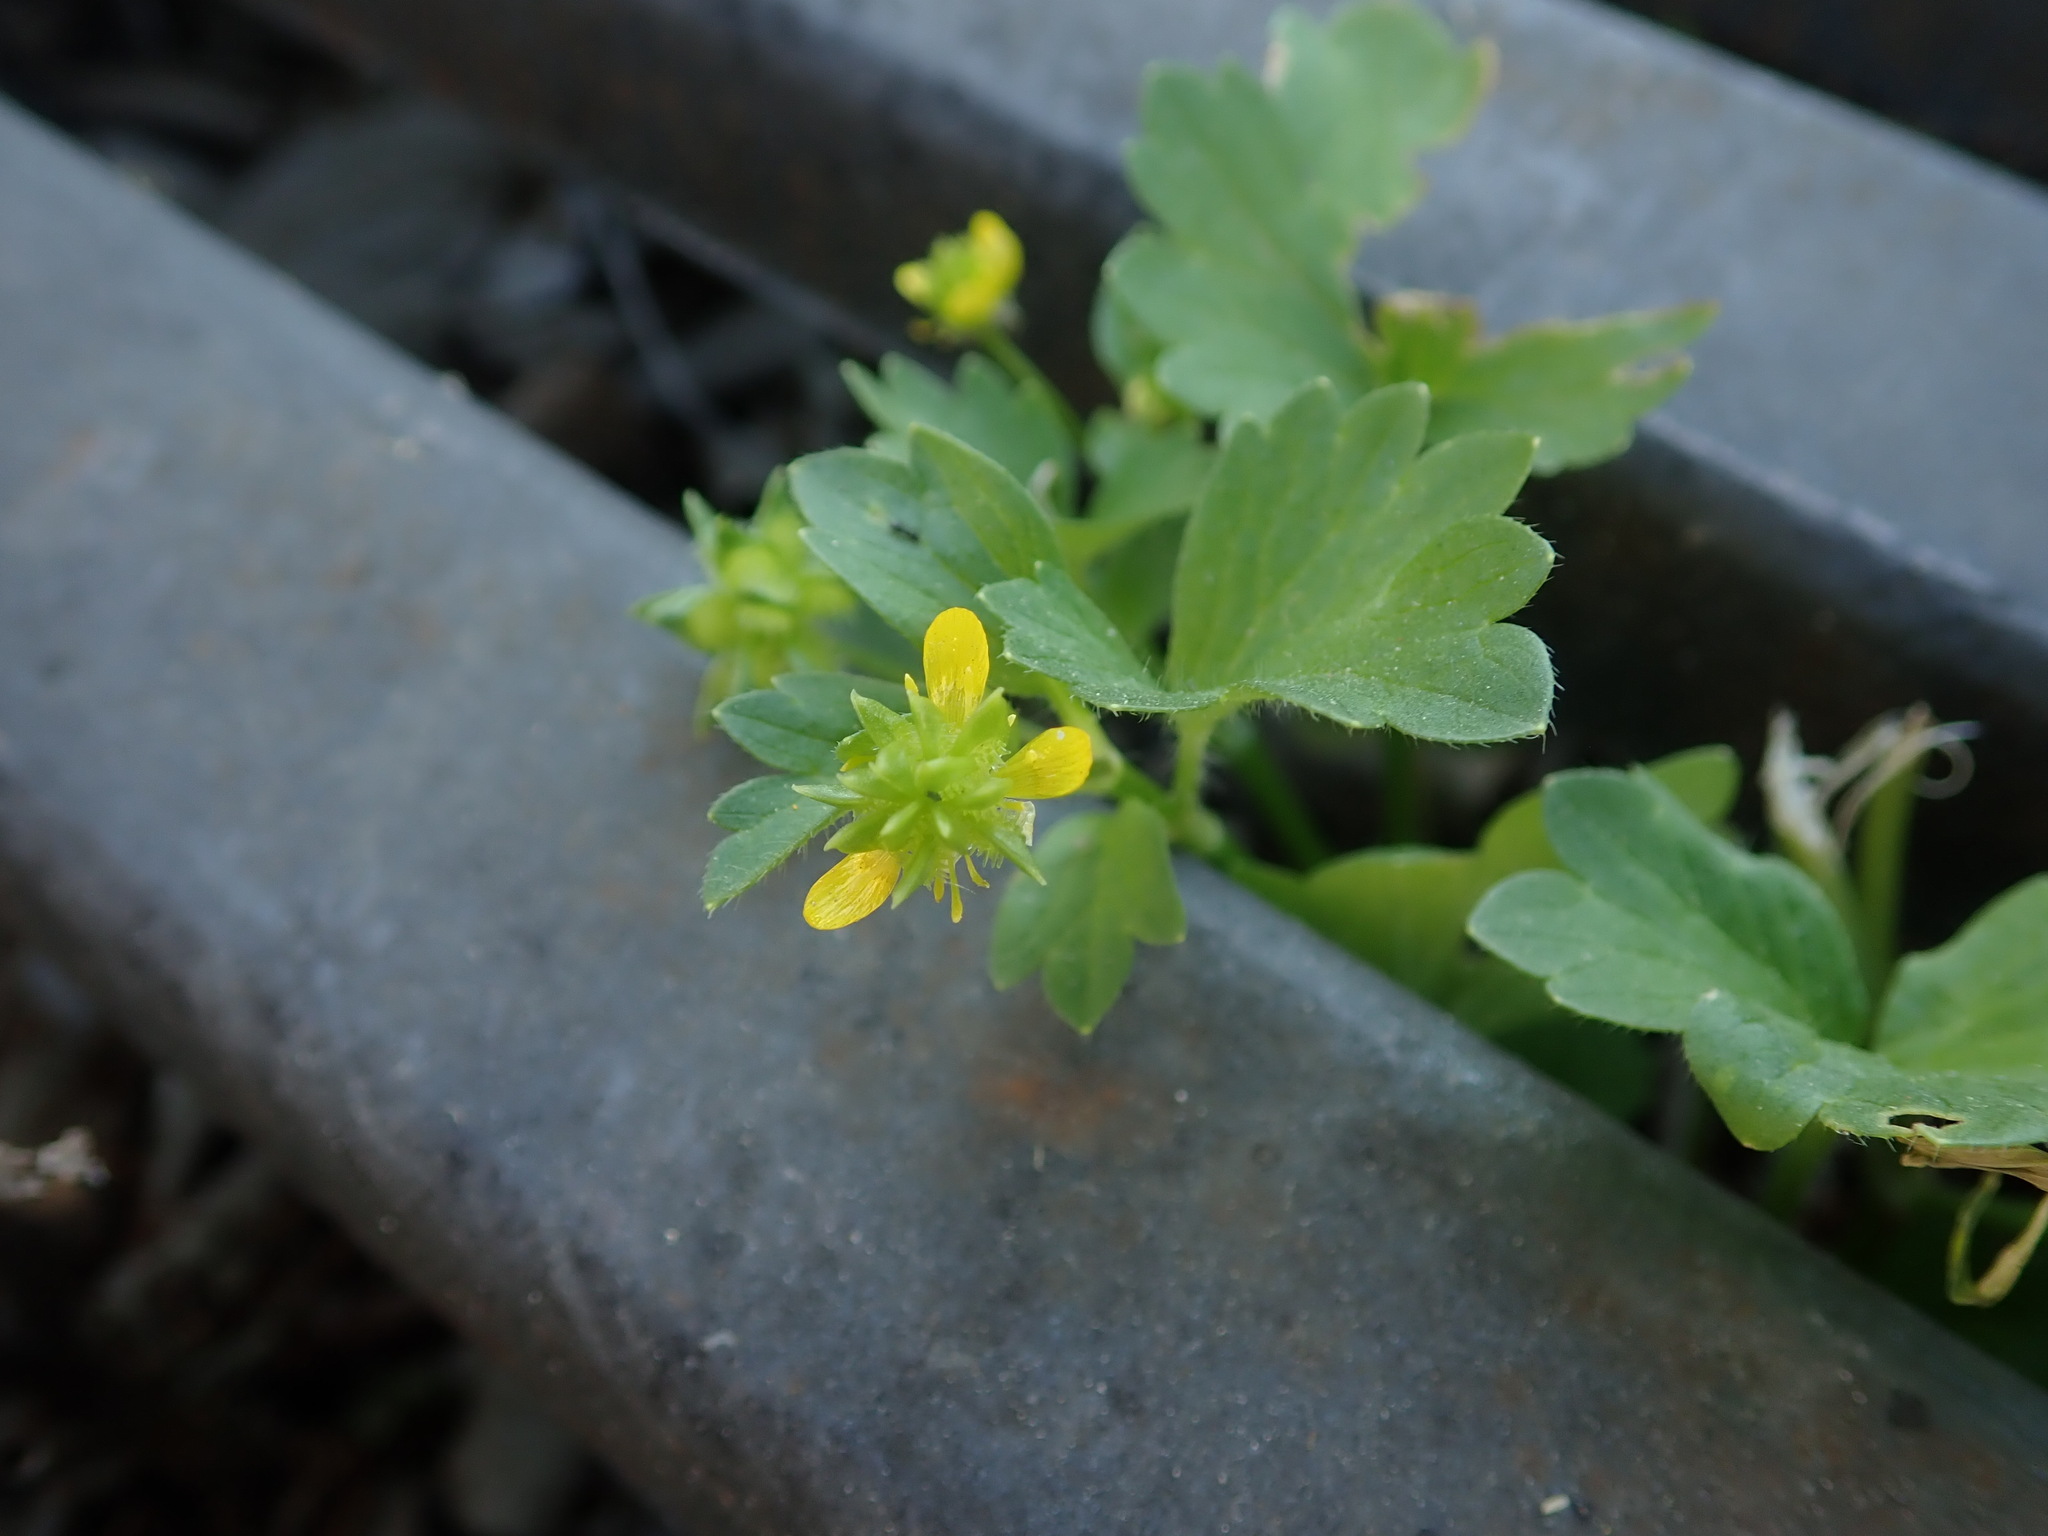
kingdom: Plantae
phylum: Tracheophyta
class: Magnoliopsida
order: Ranunculales
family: Ranunculaceae
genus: Ranunculus
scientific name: Ranunculus muricatus
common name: Rough-fruited buttercup
